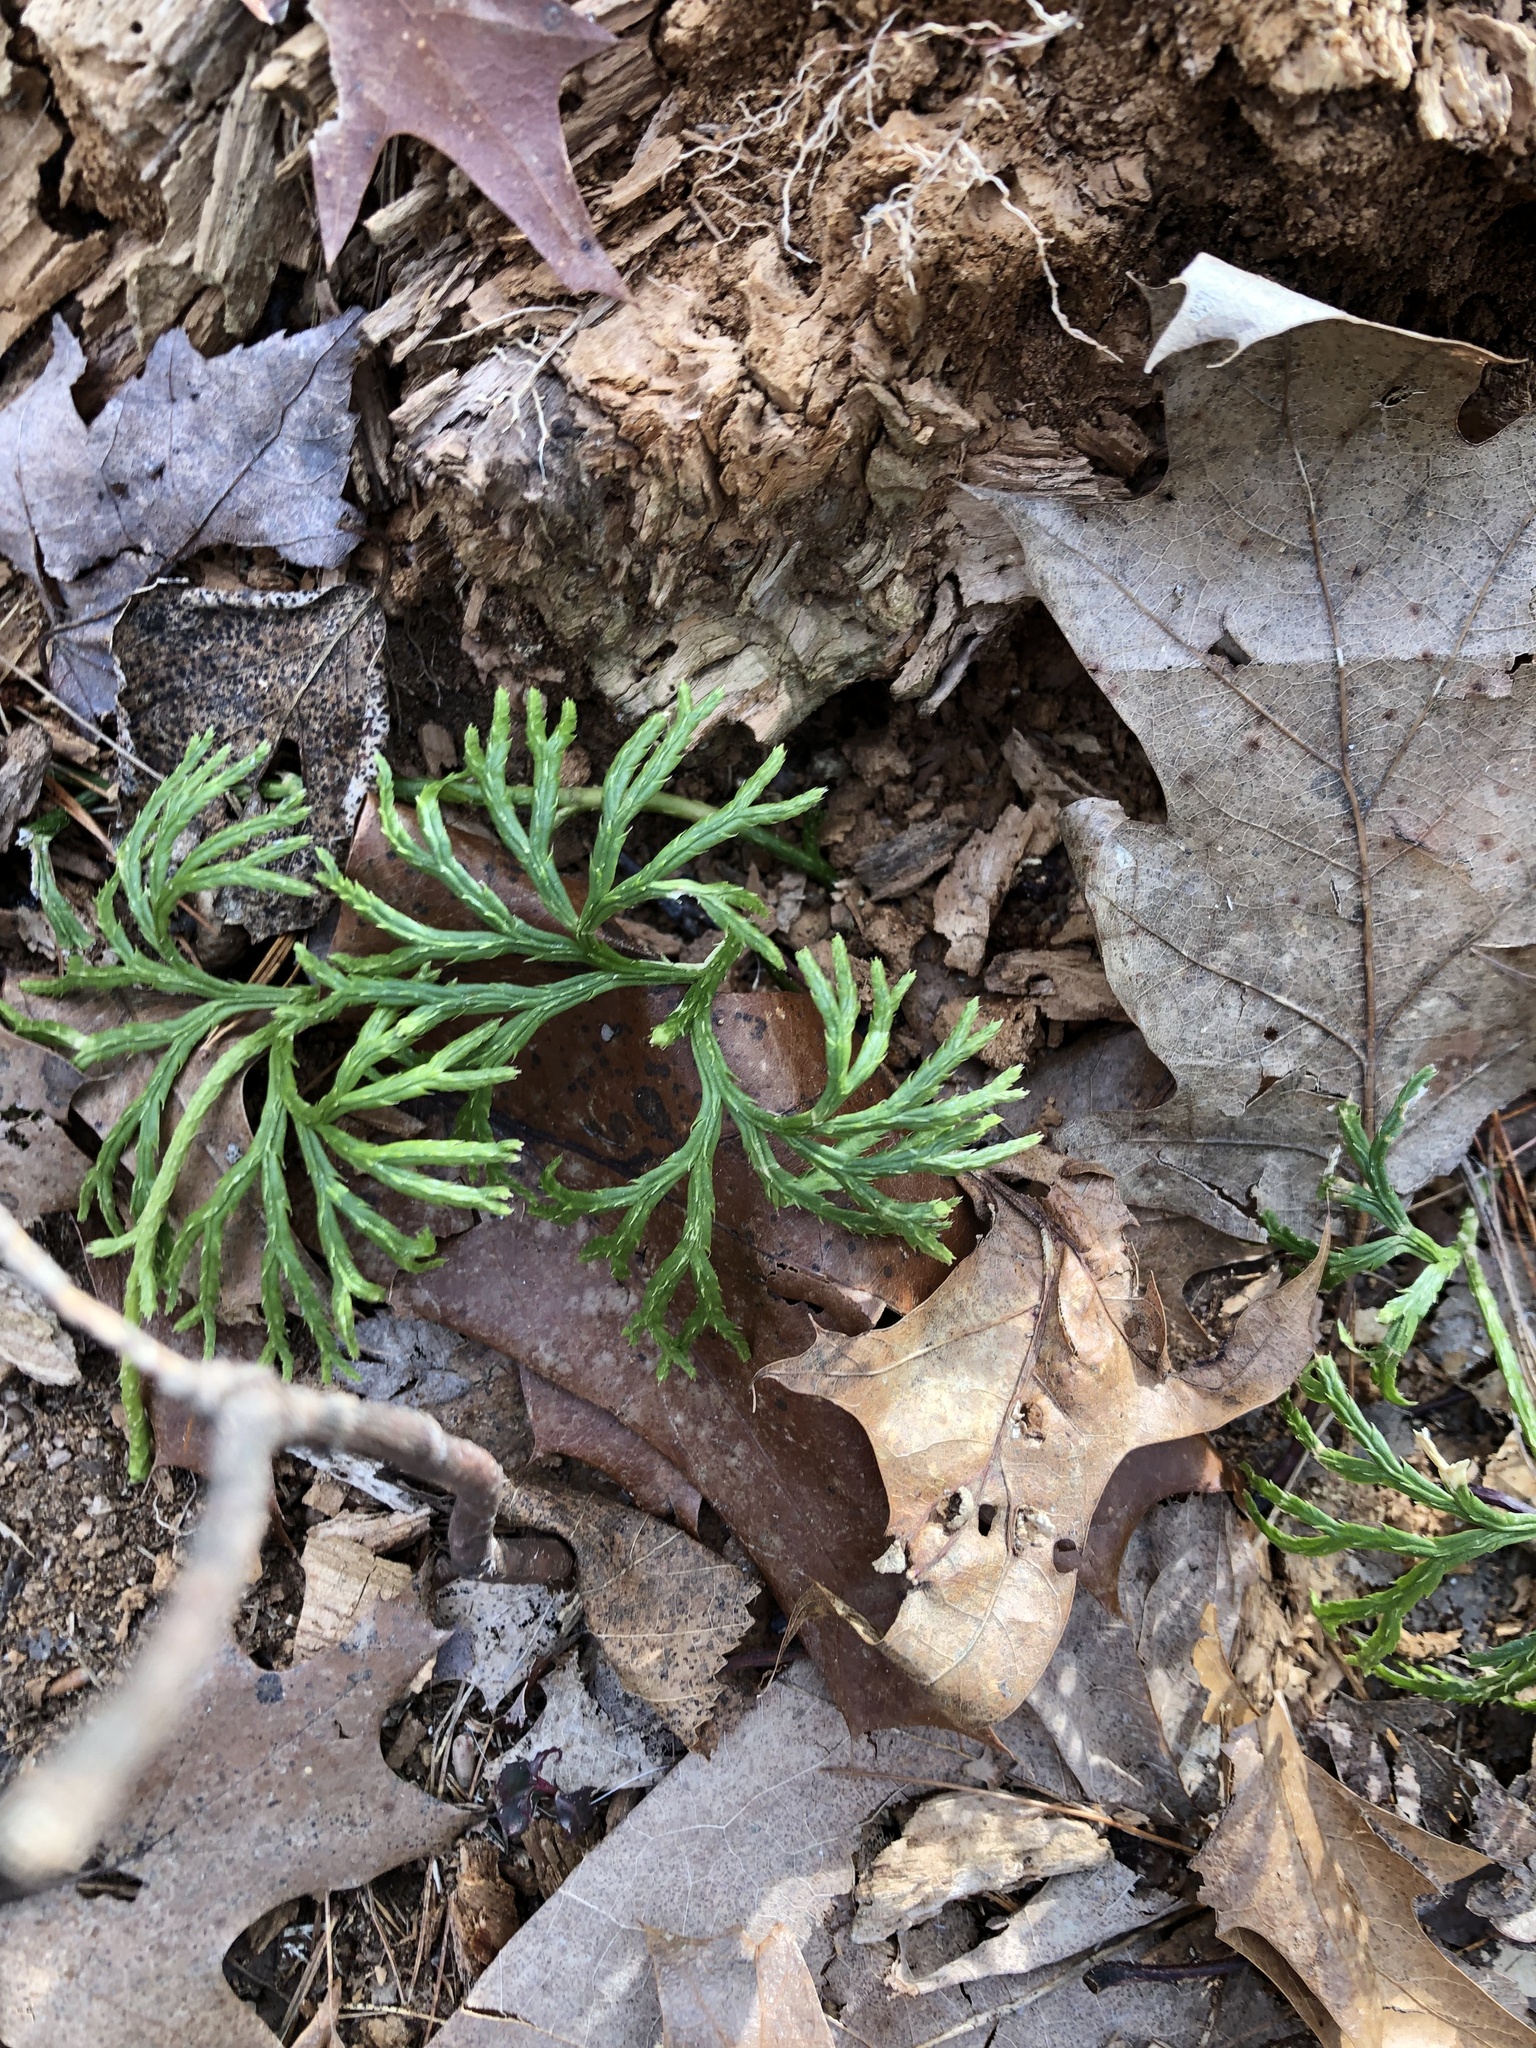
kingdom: Plantae
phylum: Tracheophyta
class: Lycopodiopsida
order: Lycopodiales
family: Lycopodiaceae
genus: Diphasiastrum
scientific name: Diphasiastrum digitatum
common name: Southern running-pine
